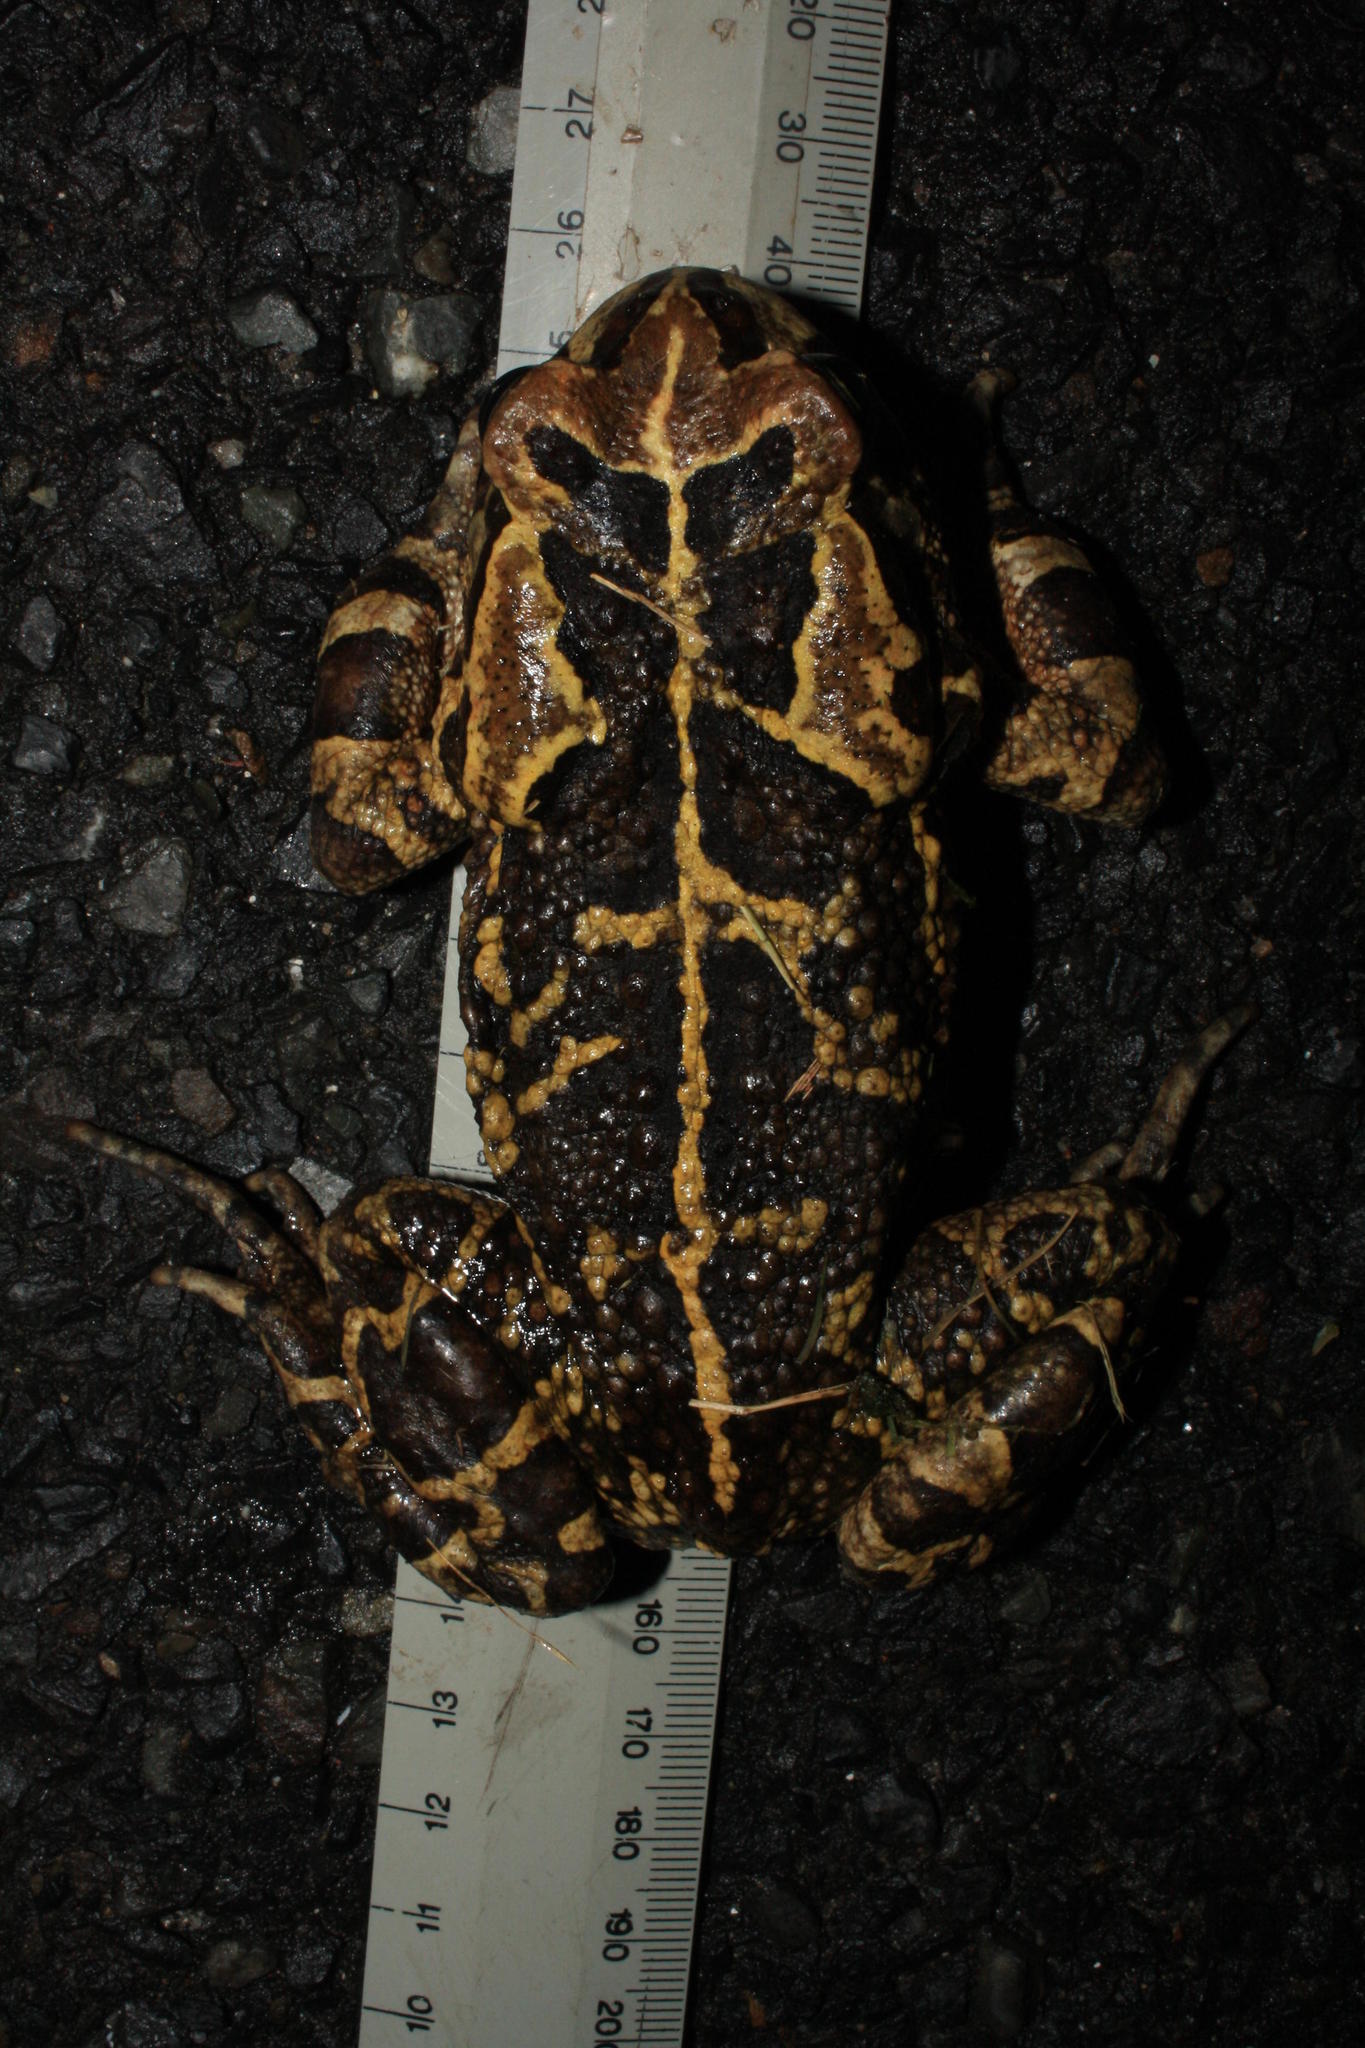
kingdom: Animalia
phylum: Chordata
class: Amphibia
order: Anura
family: Bufonidae
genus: Sclerophrys
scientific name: Sclerophrys pantherina
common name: Panther toad
